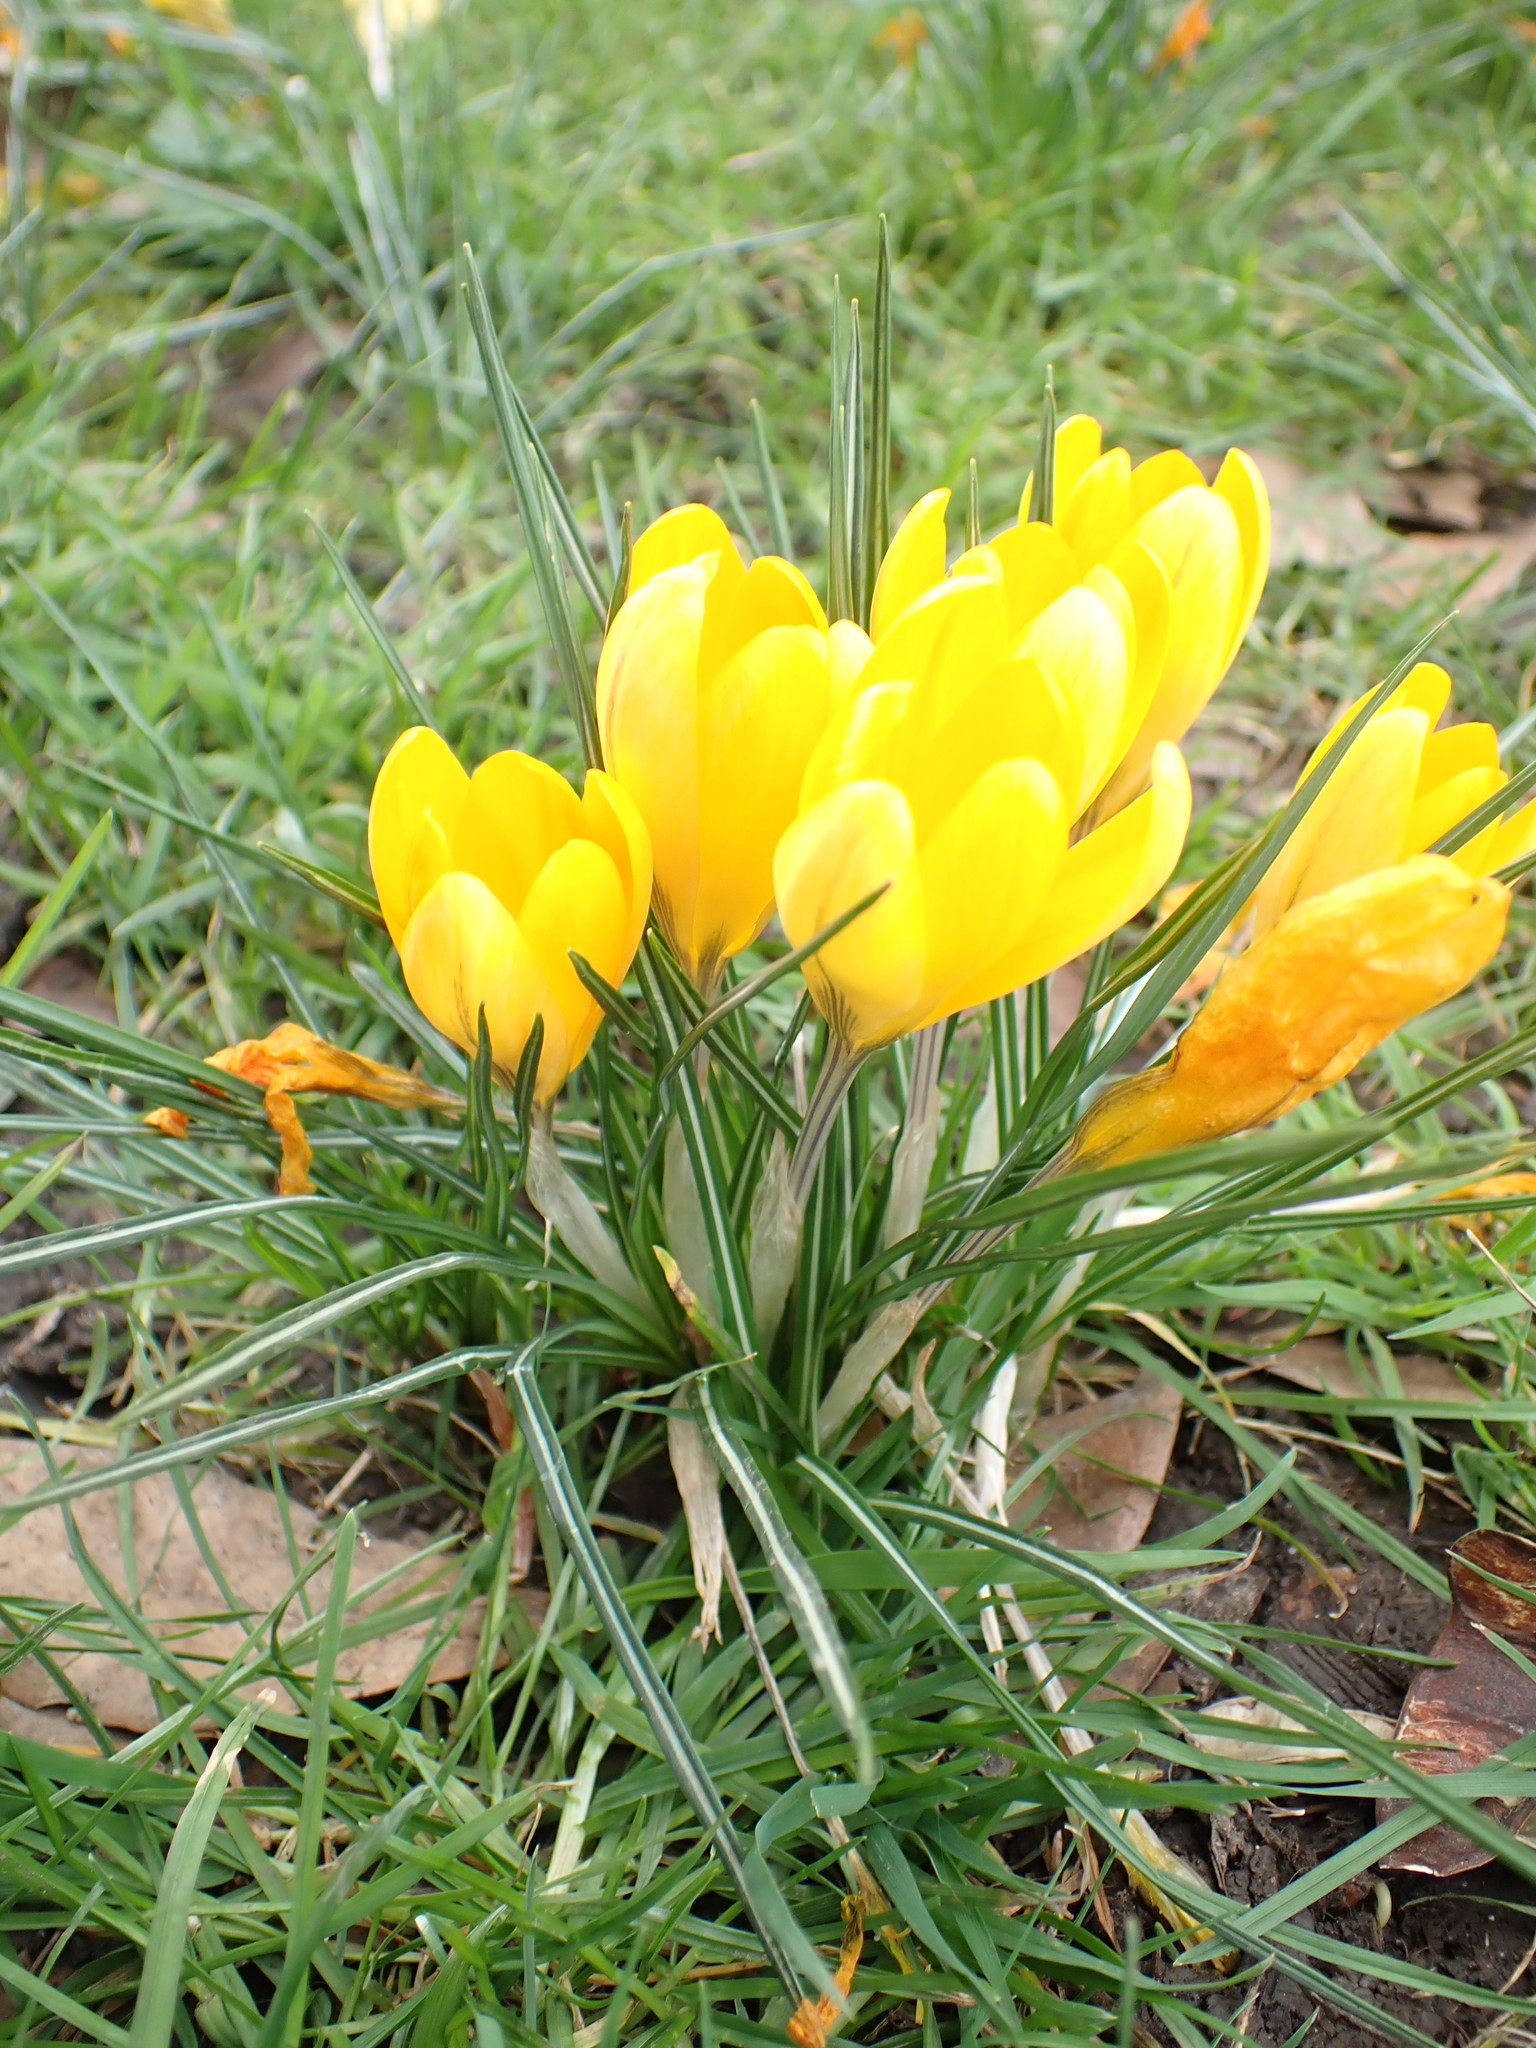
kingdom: Plantae
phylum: Tracheophyta
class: Liliopsida
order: Asparagales
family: Iridaceae
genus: Crocus
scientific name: Crocus luteus
